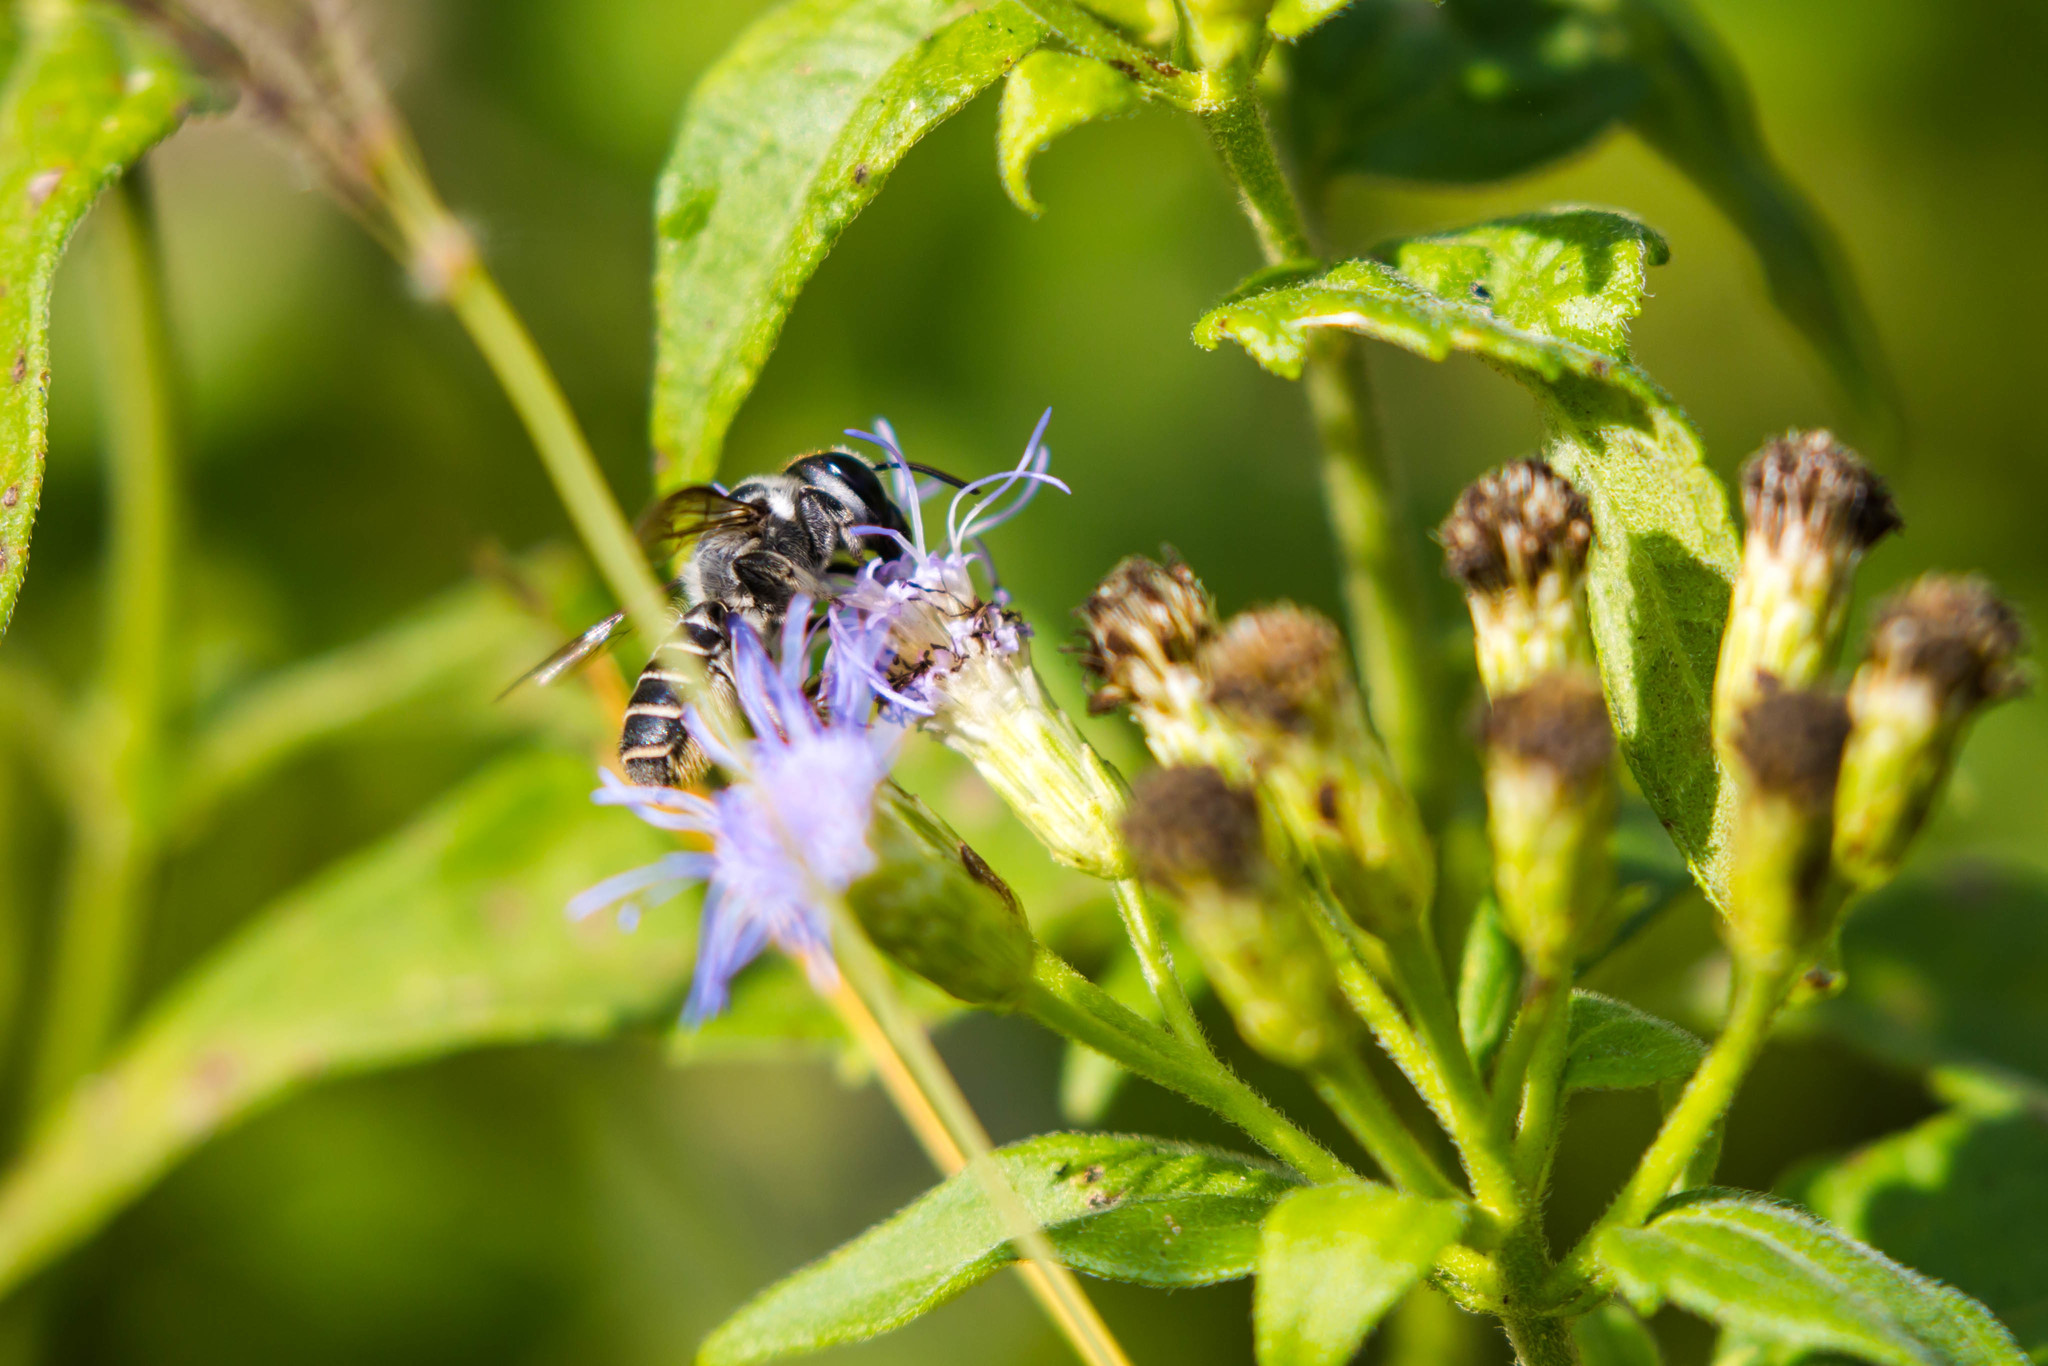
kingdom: Animalia
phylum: Arthropoda
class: Insecta
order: Hymenoptera
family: Megachilidae
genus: Megachile
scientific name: Megachile zaptlana
